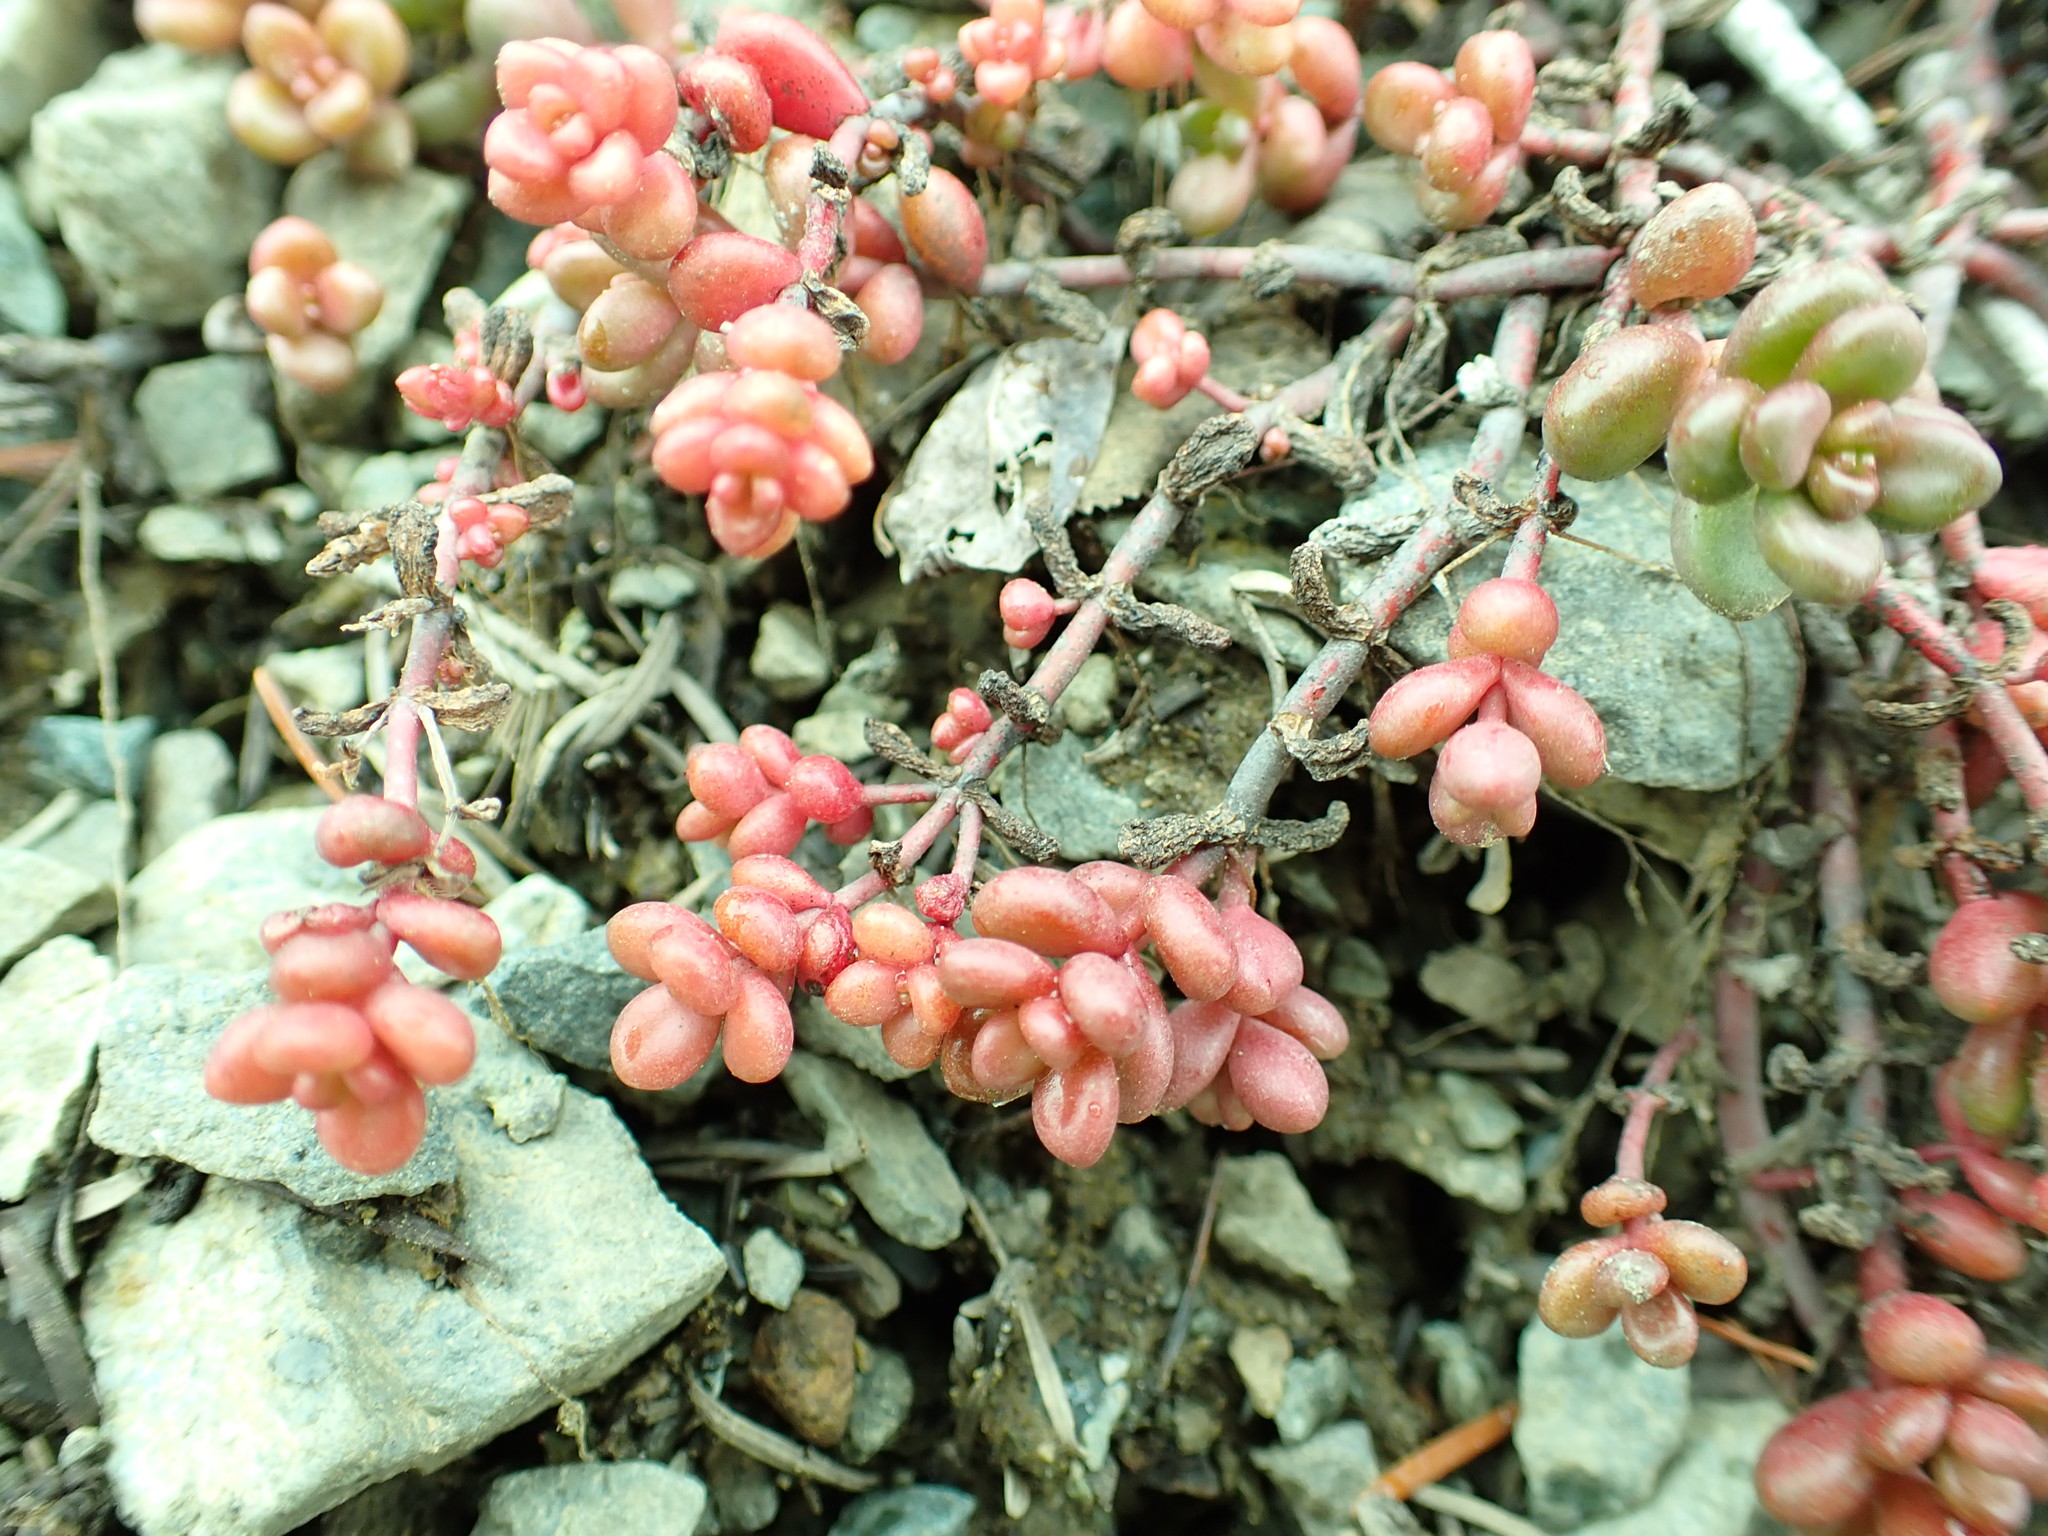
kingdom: Plantae
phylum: Tracheophyta
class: Magnoliopsida
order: Saxifragales
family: Crassulaceae
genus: Sedum
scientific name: Sedum divergens
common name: Cascade stonecrop
